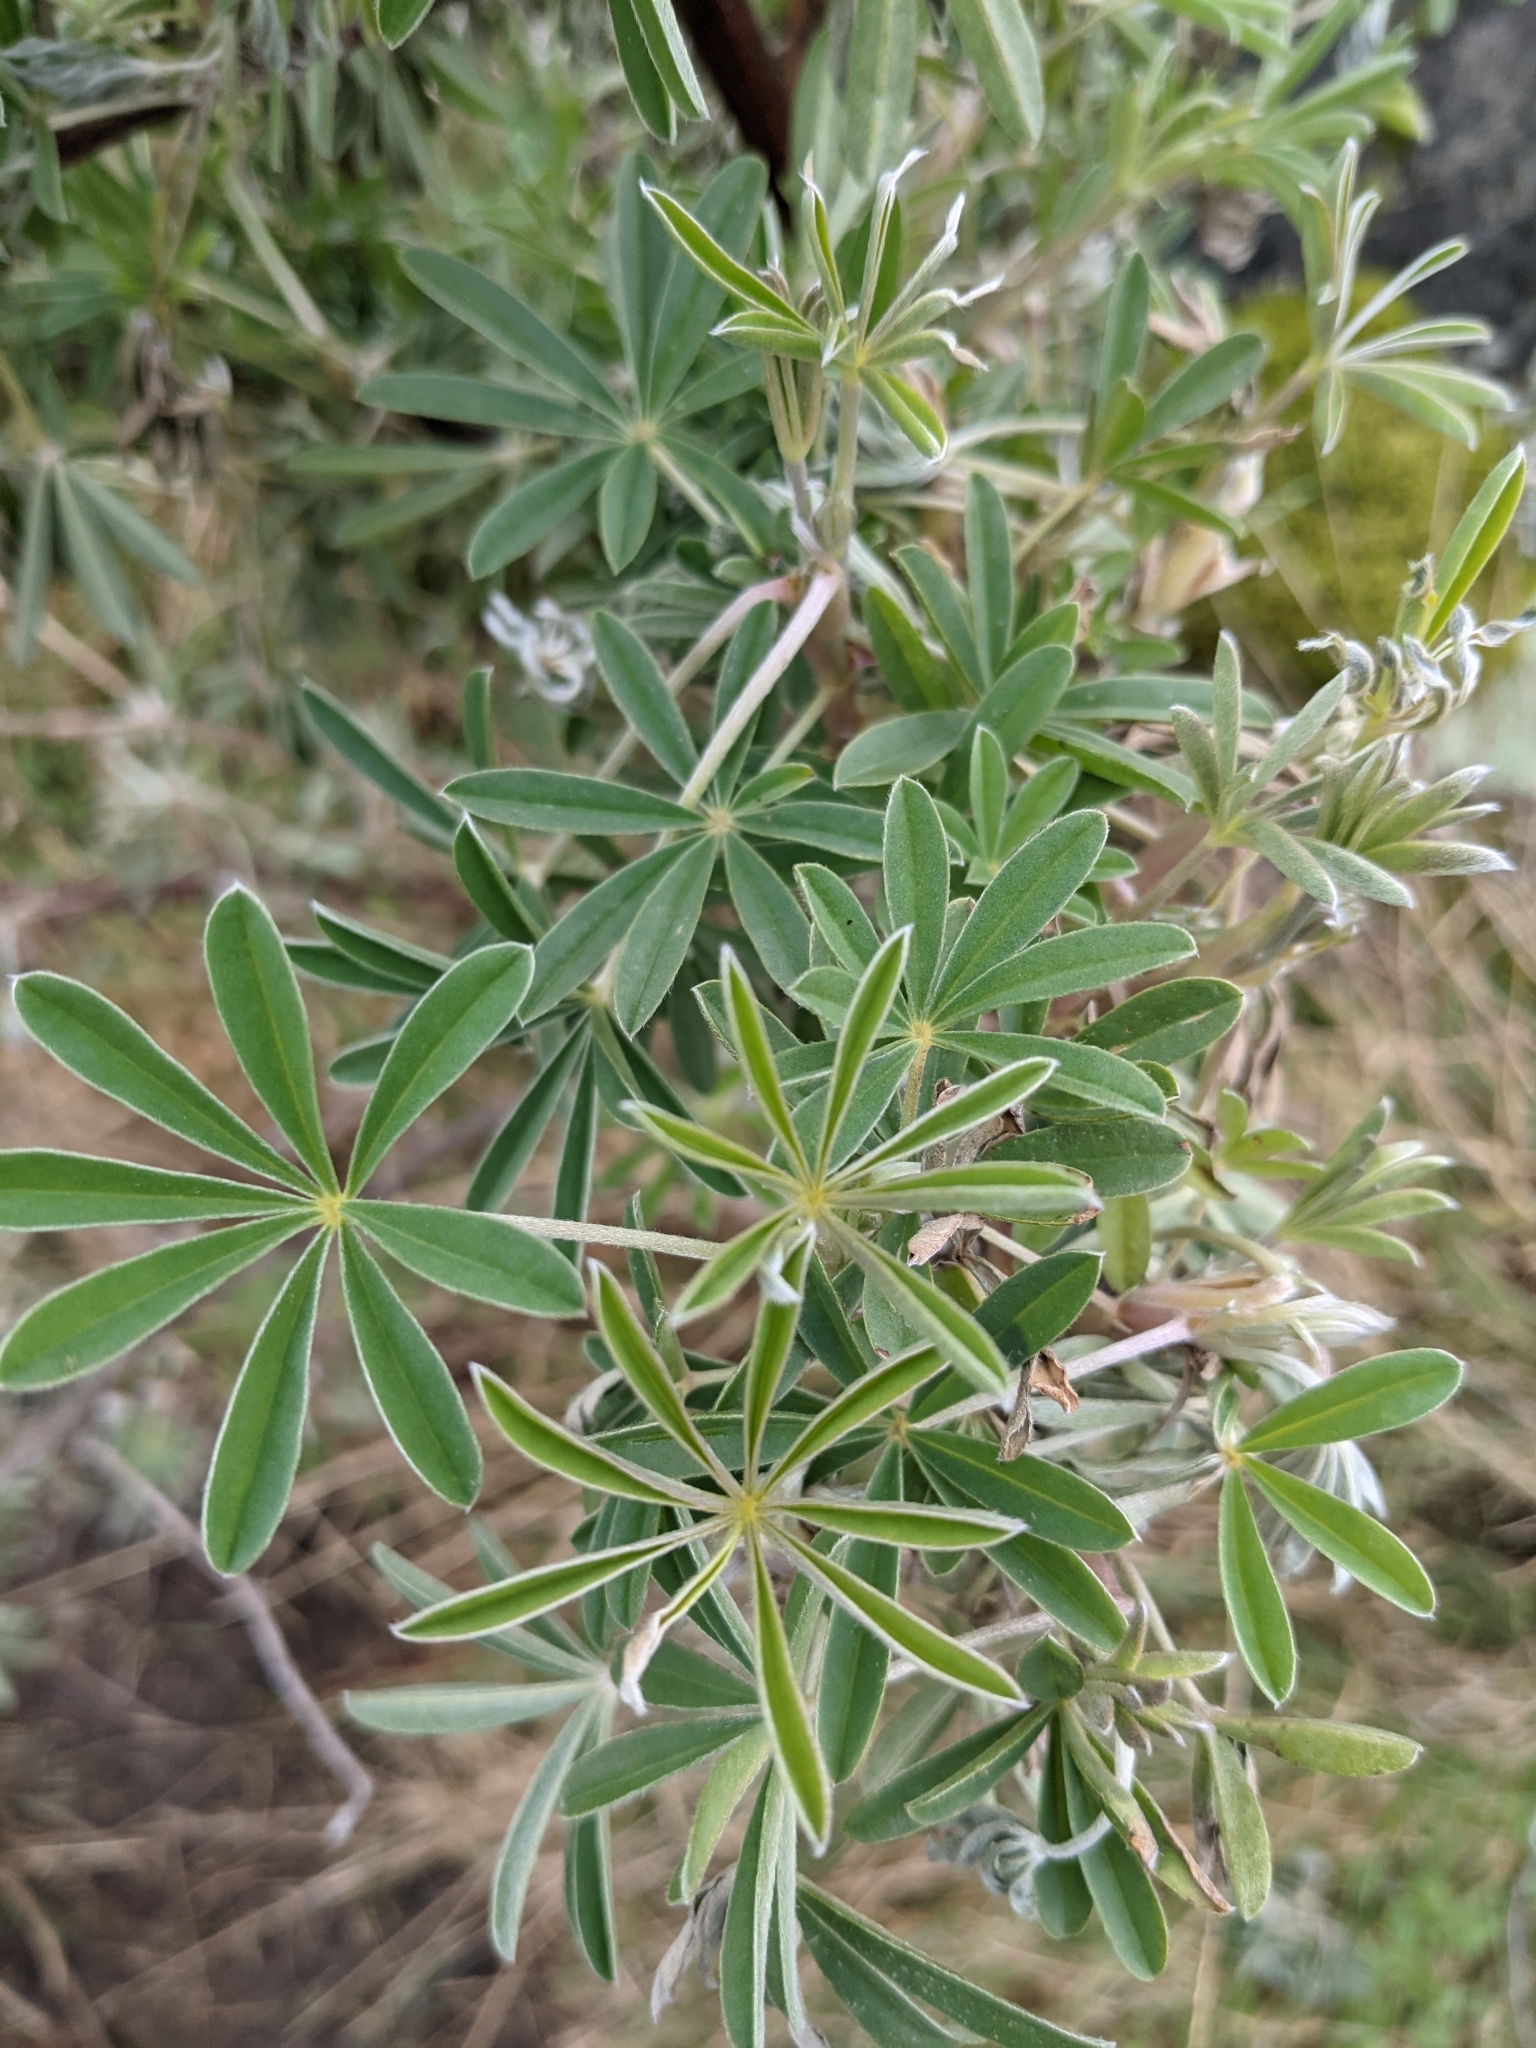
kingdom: Plantae
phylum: Tracheophyta
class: Magnoliopsida
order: Fabales
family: Fabaceae
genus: Lupinus
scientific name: Lupinus arboreus
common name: Yellow bush lupine
